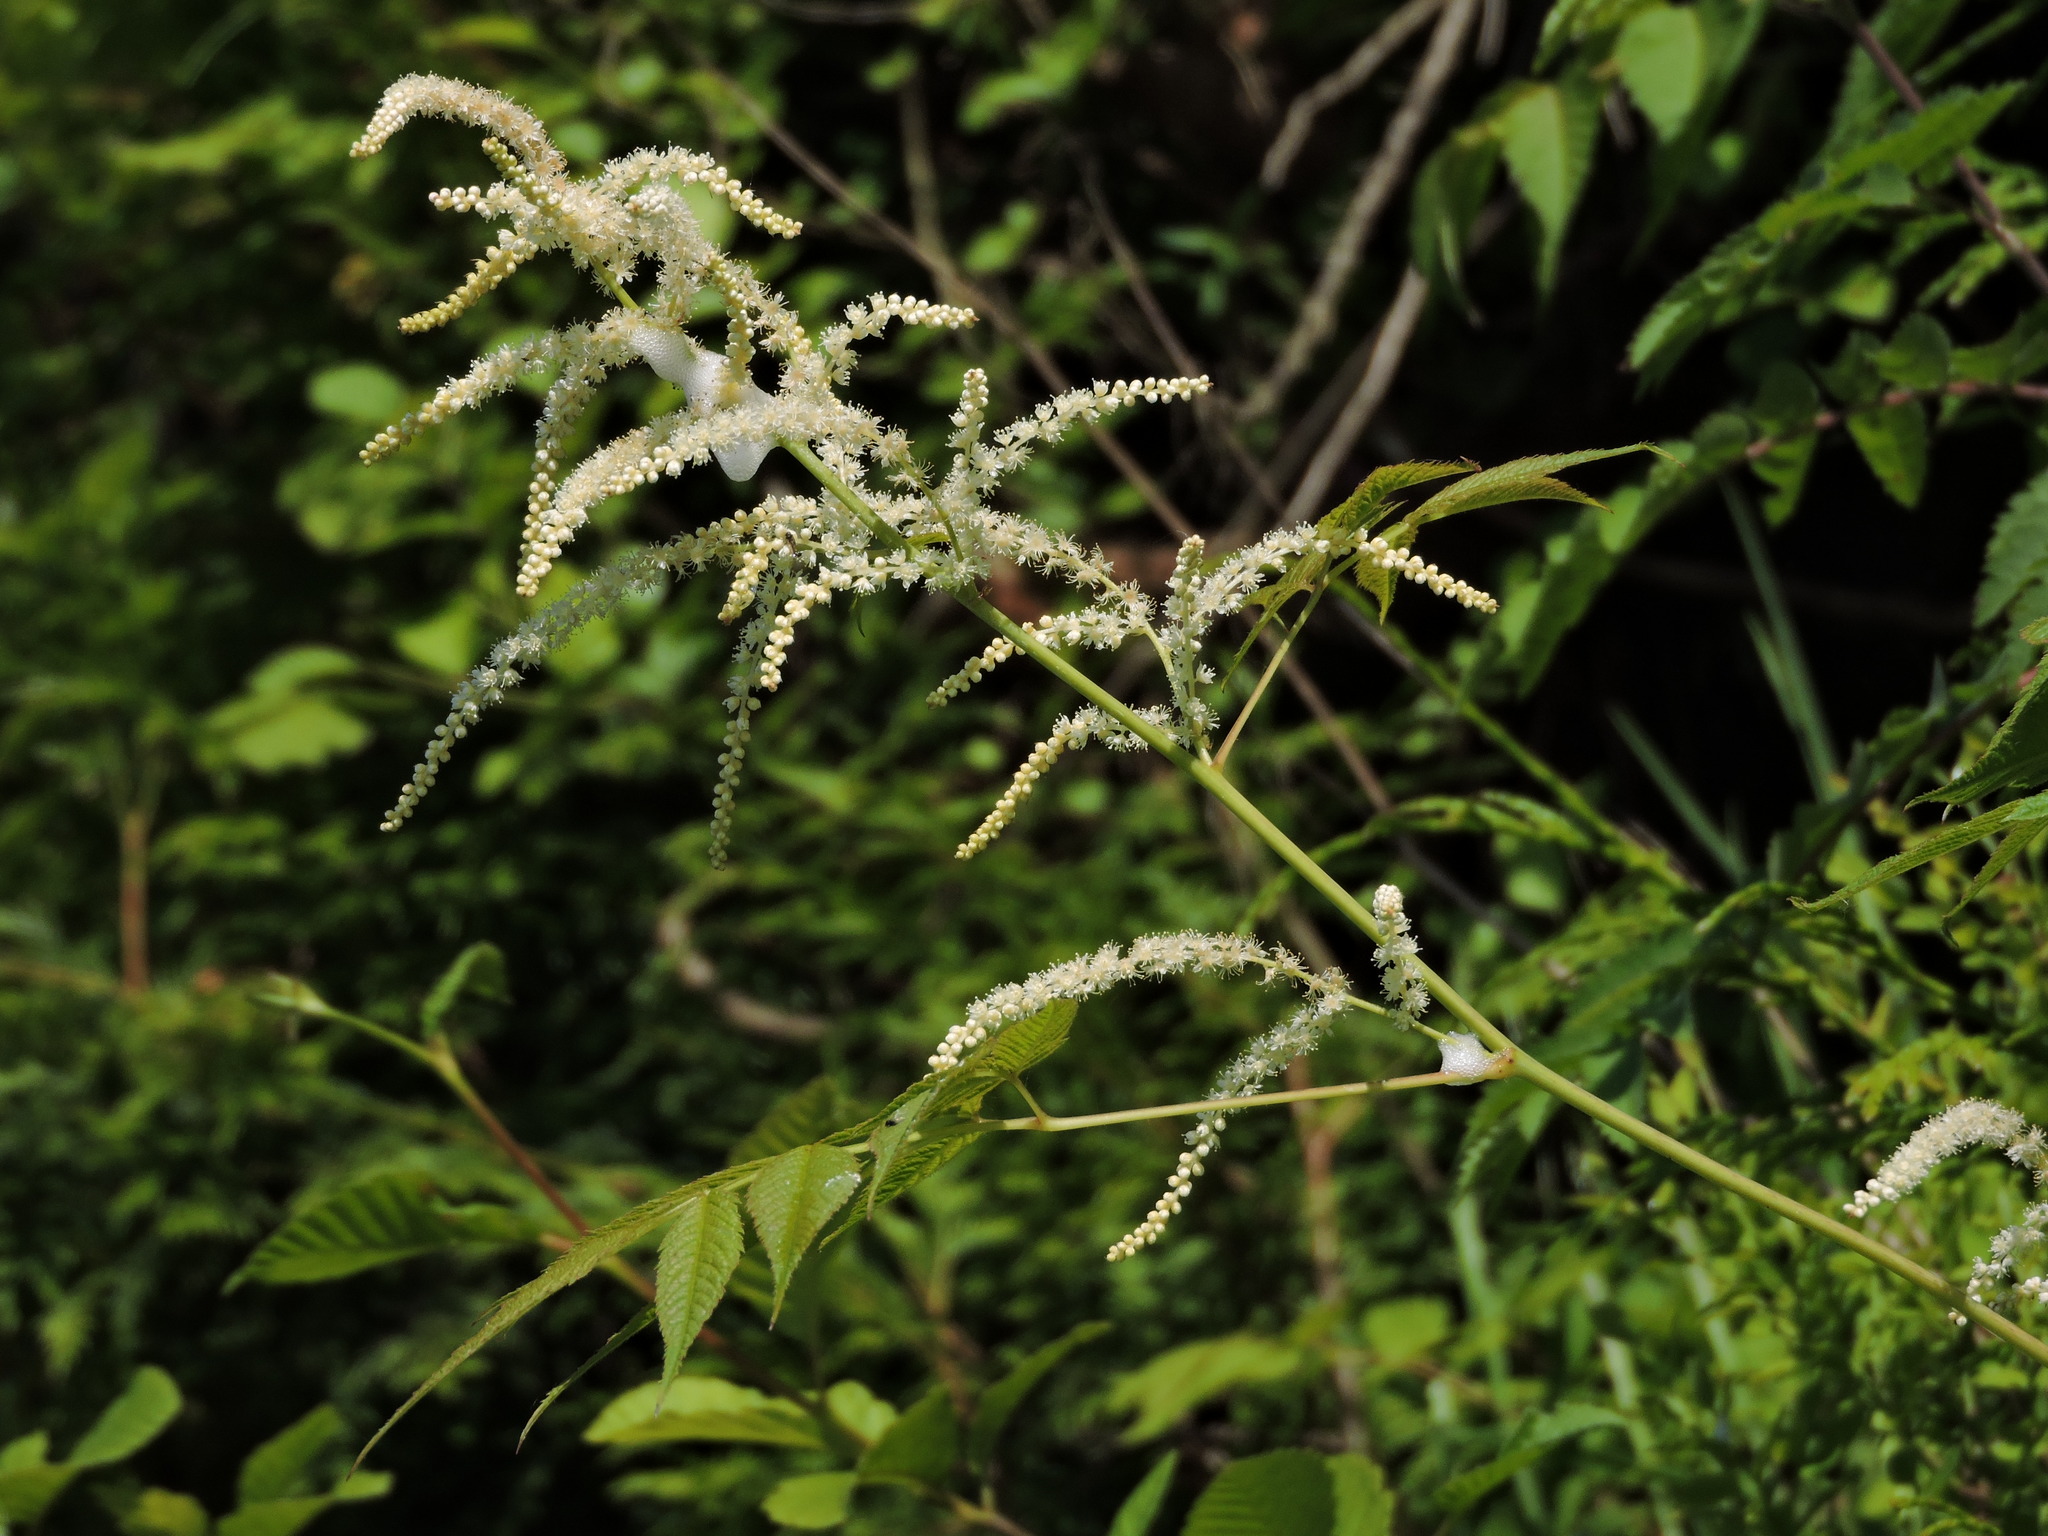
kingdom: Plantae
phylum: Tracheophyta
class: Magnoliopsida
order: Rosales
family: Rosaceae
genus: Aruncus
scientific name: Aruncus dioicus
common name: Buck's-beard
